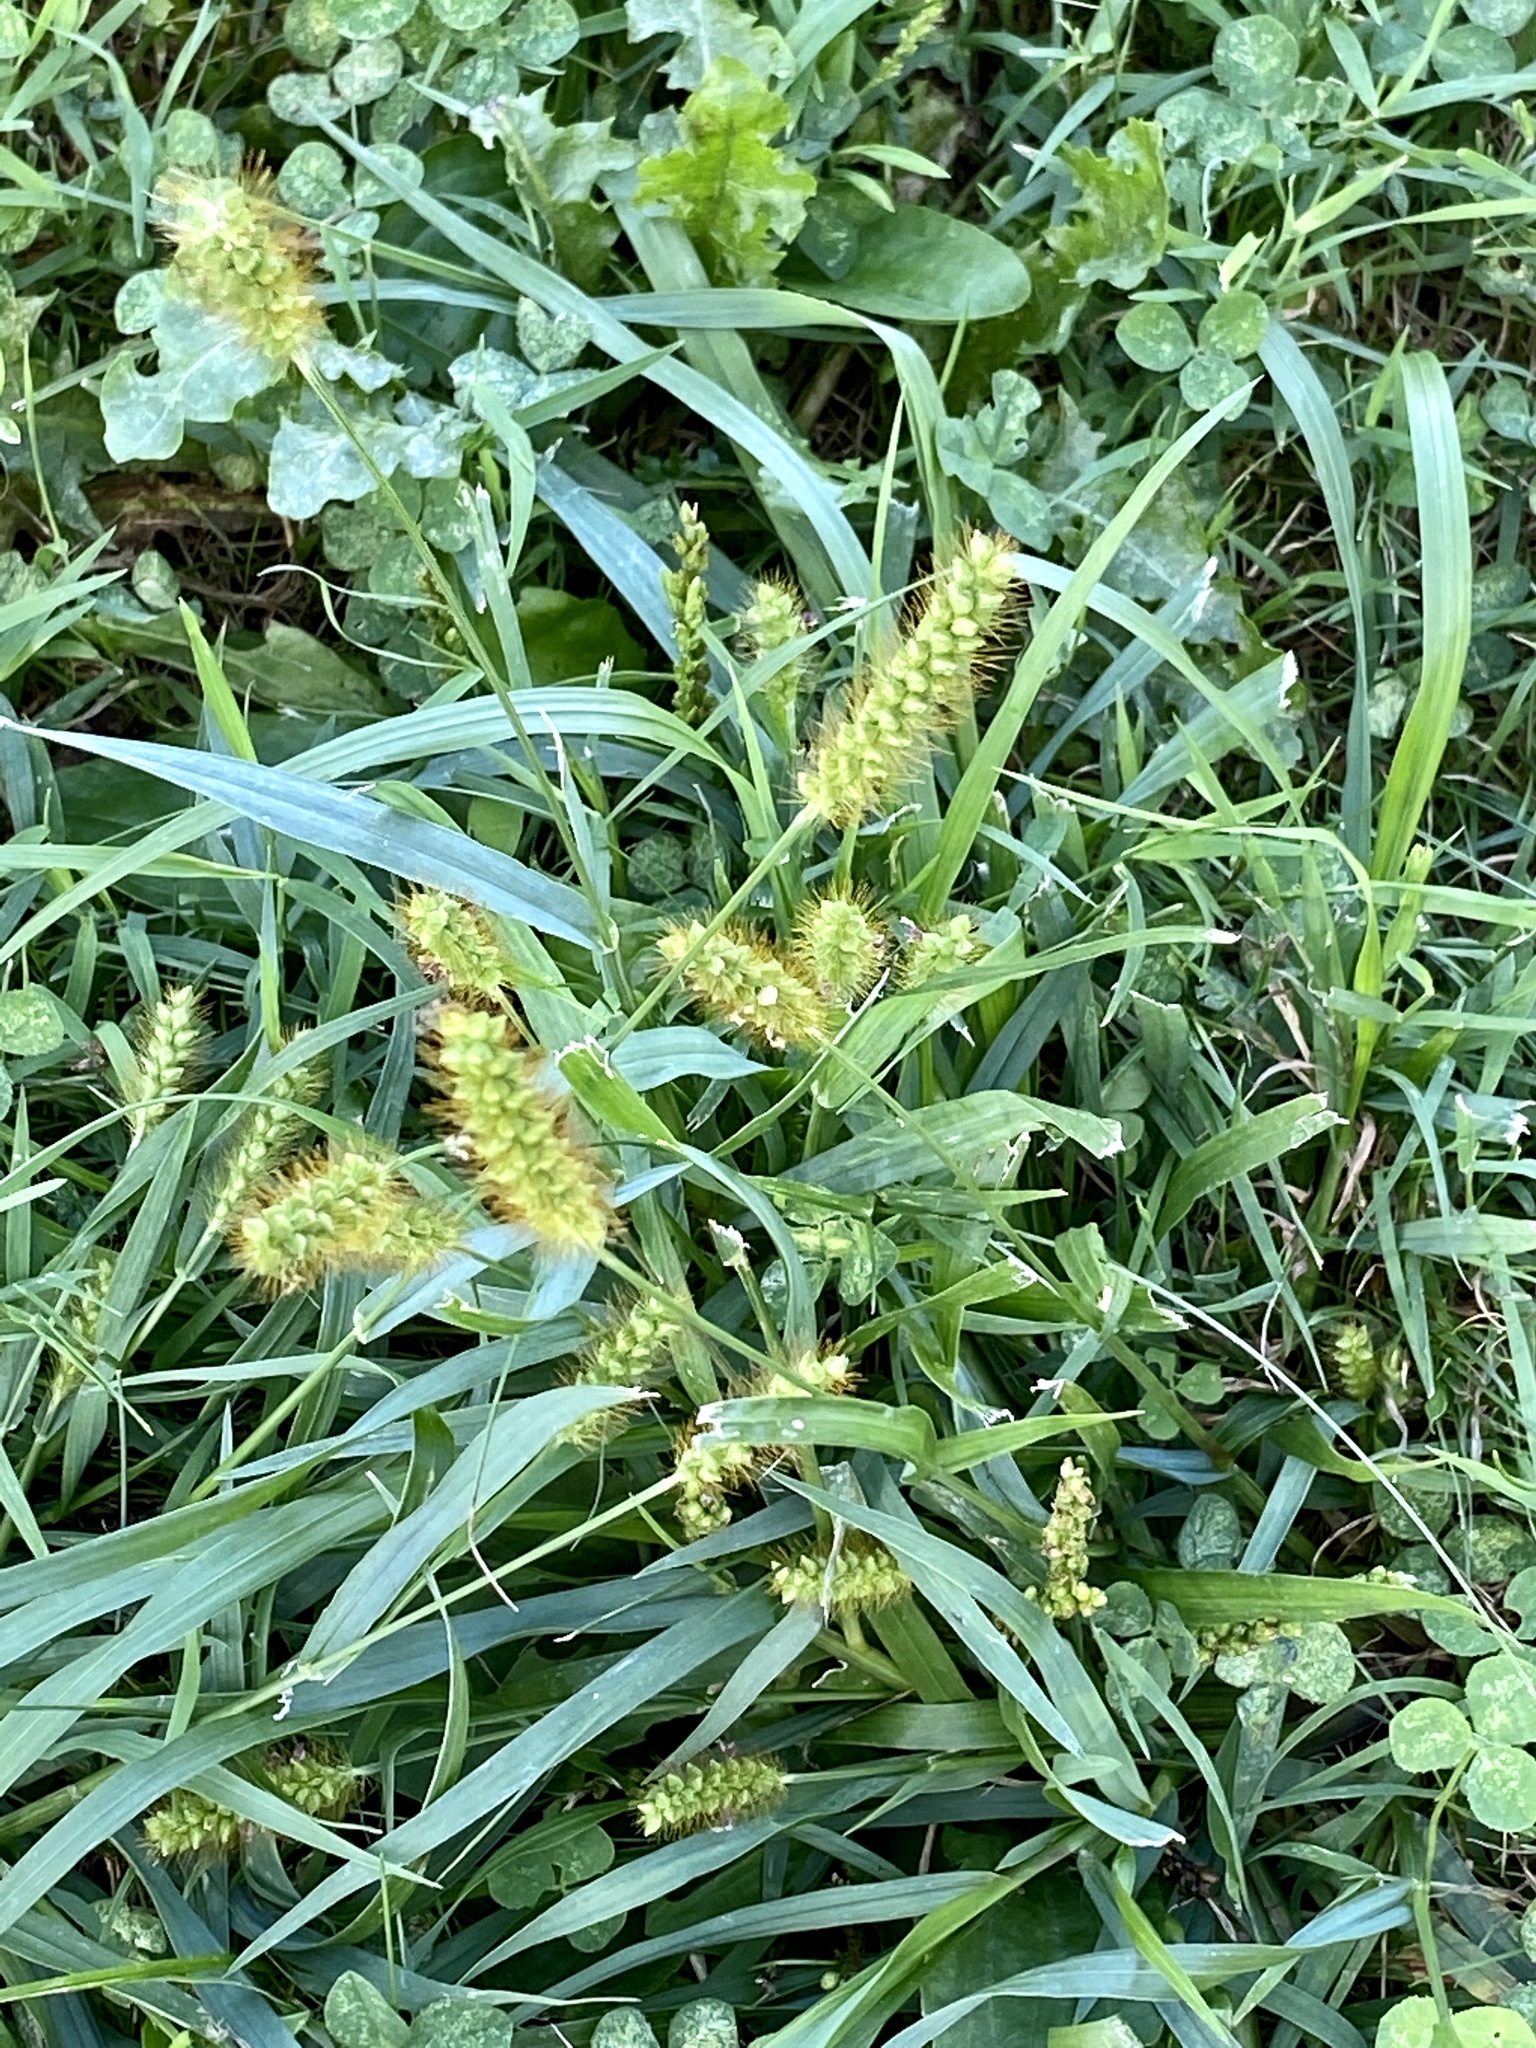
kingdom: Plantae
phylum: Tracheophyta
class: Liliopsida
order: Poales
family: Poaceae
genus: Setaria
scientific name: Setaria pumila
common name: Yellow bristle-grass
